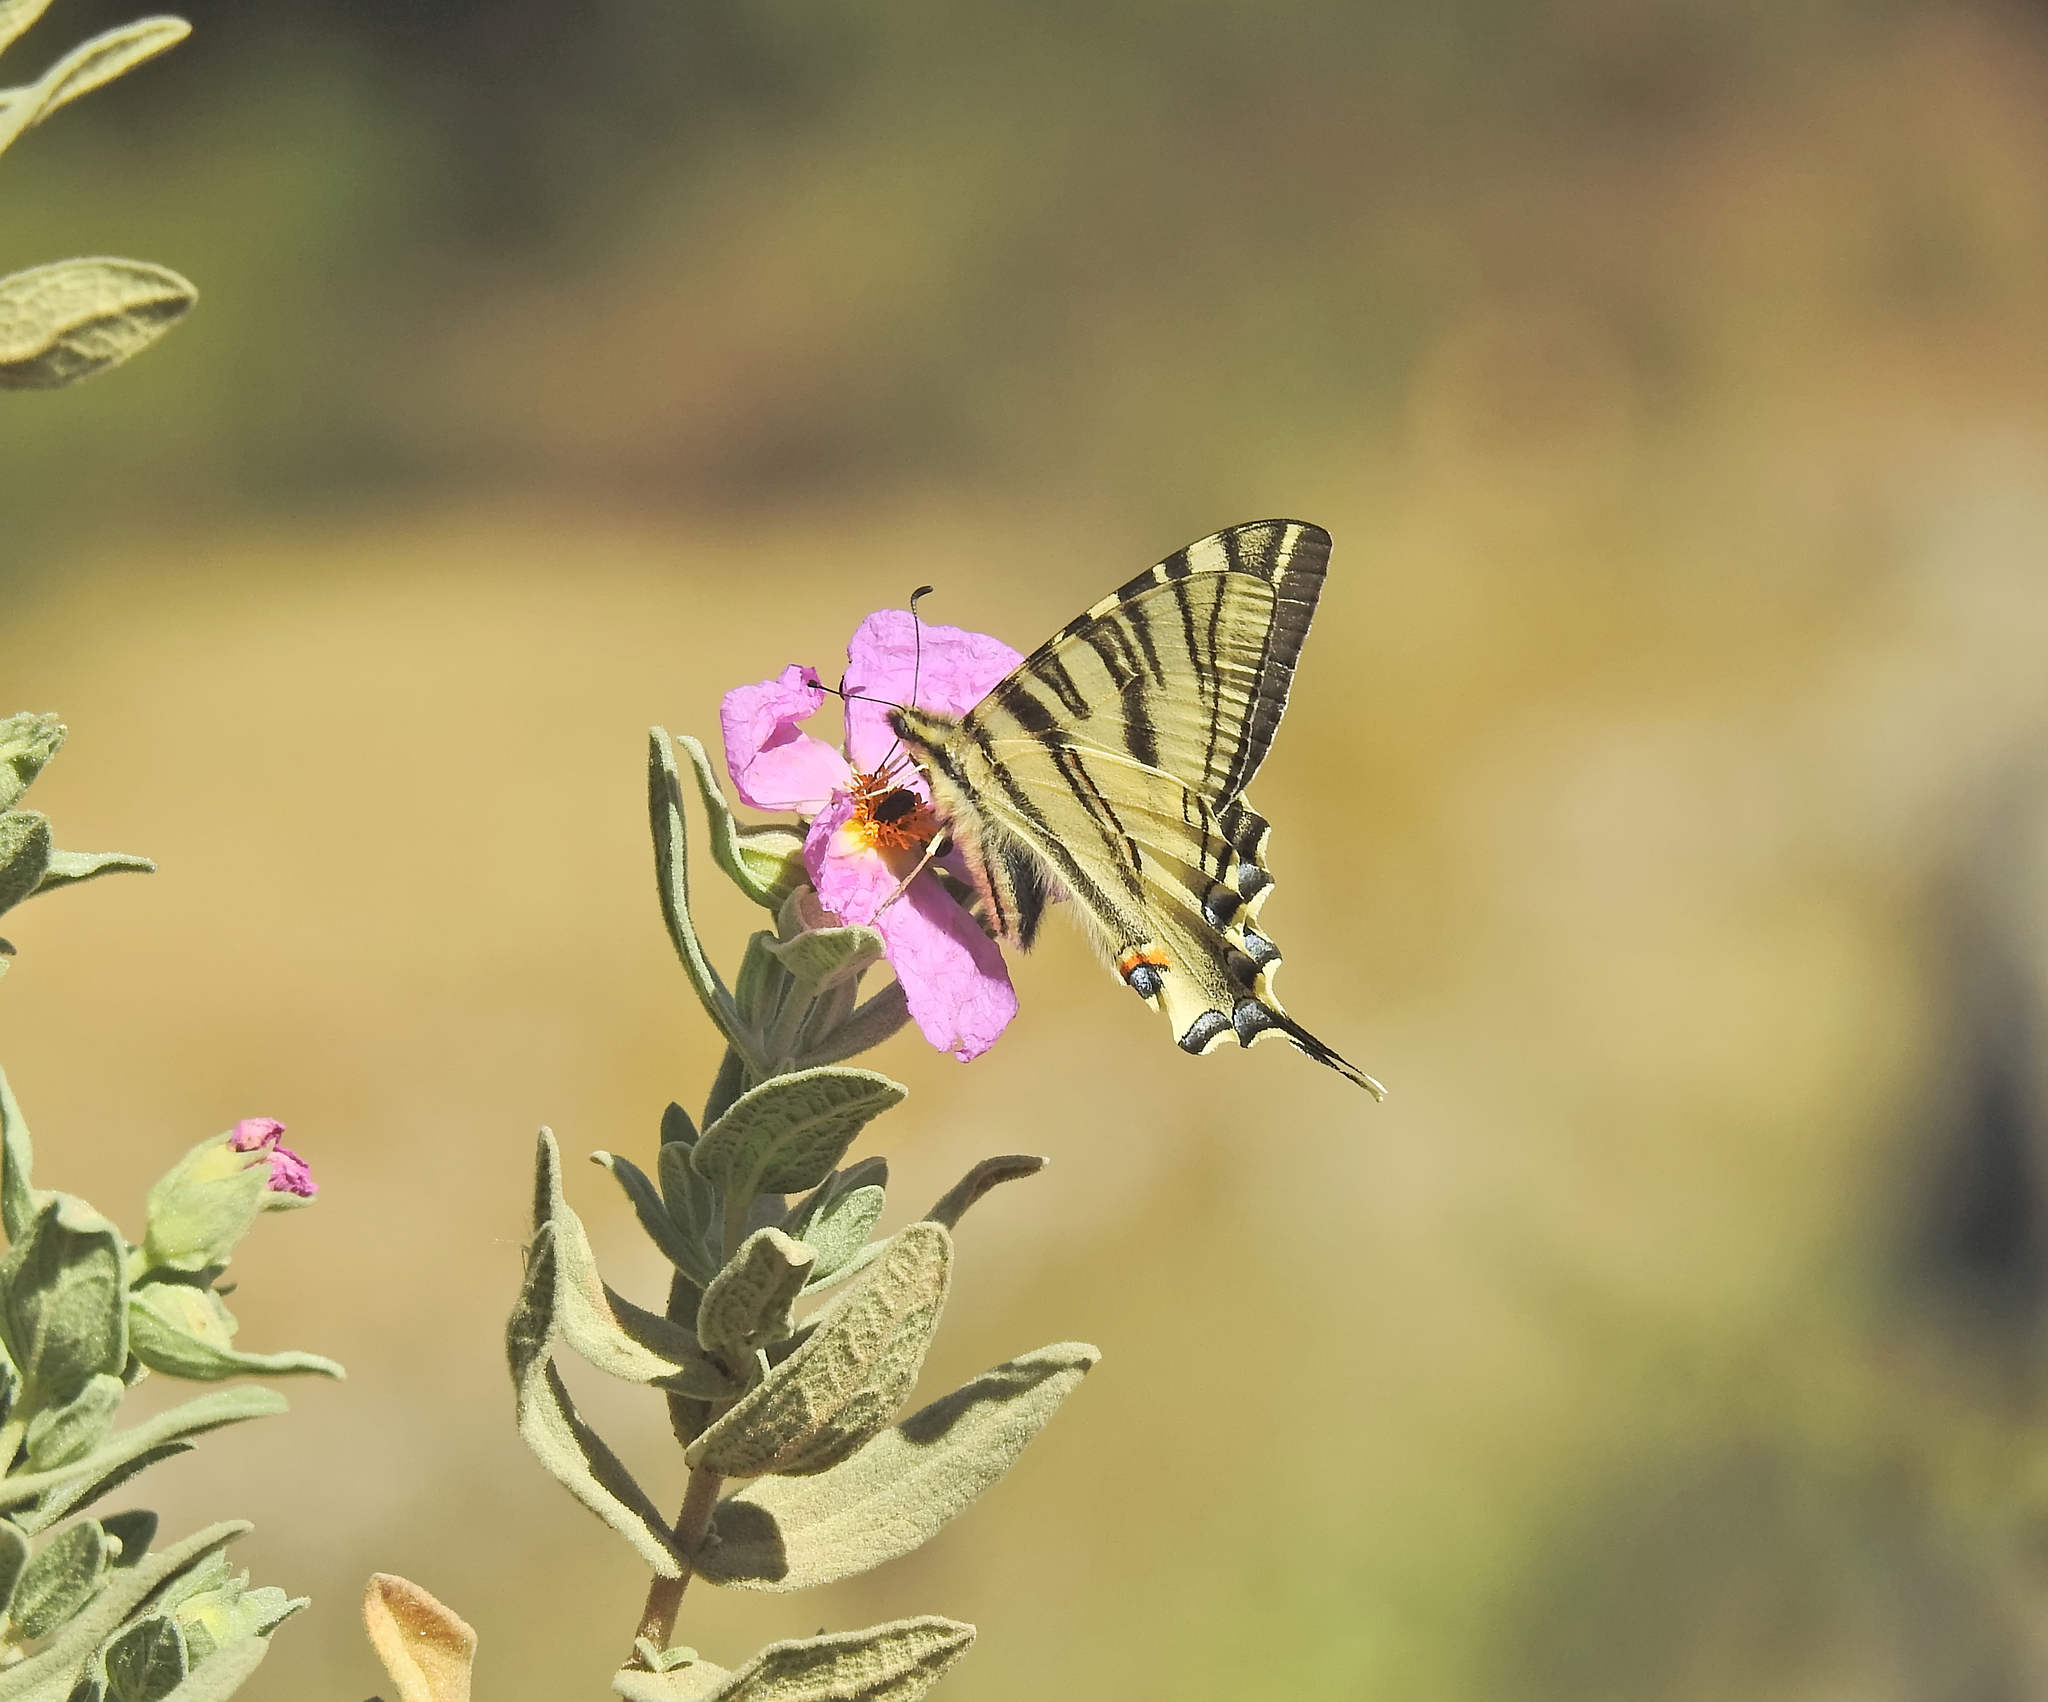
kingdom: Animalia
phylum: Arthropoda
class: Insecta
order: Lepidoptera
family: Papilionidae
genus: Iphiclides
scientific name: Iphiclides feisthamelii
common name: Iberian scarce swallowtail
